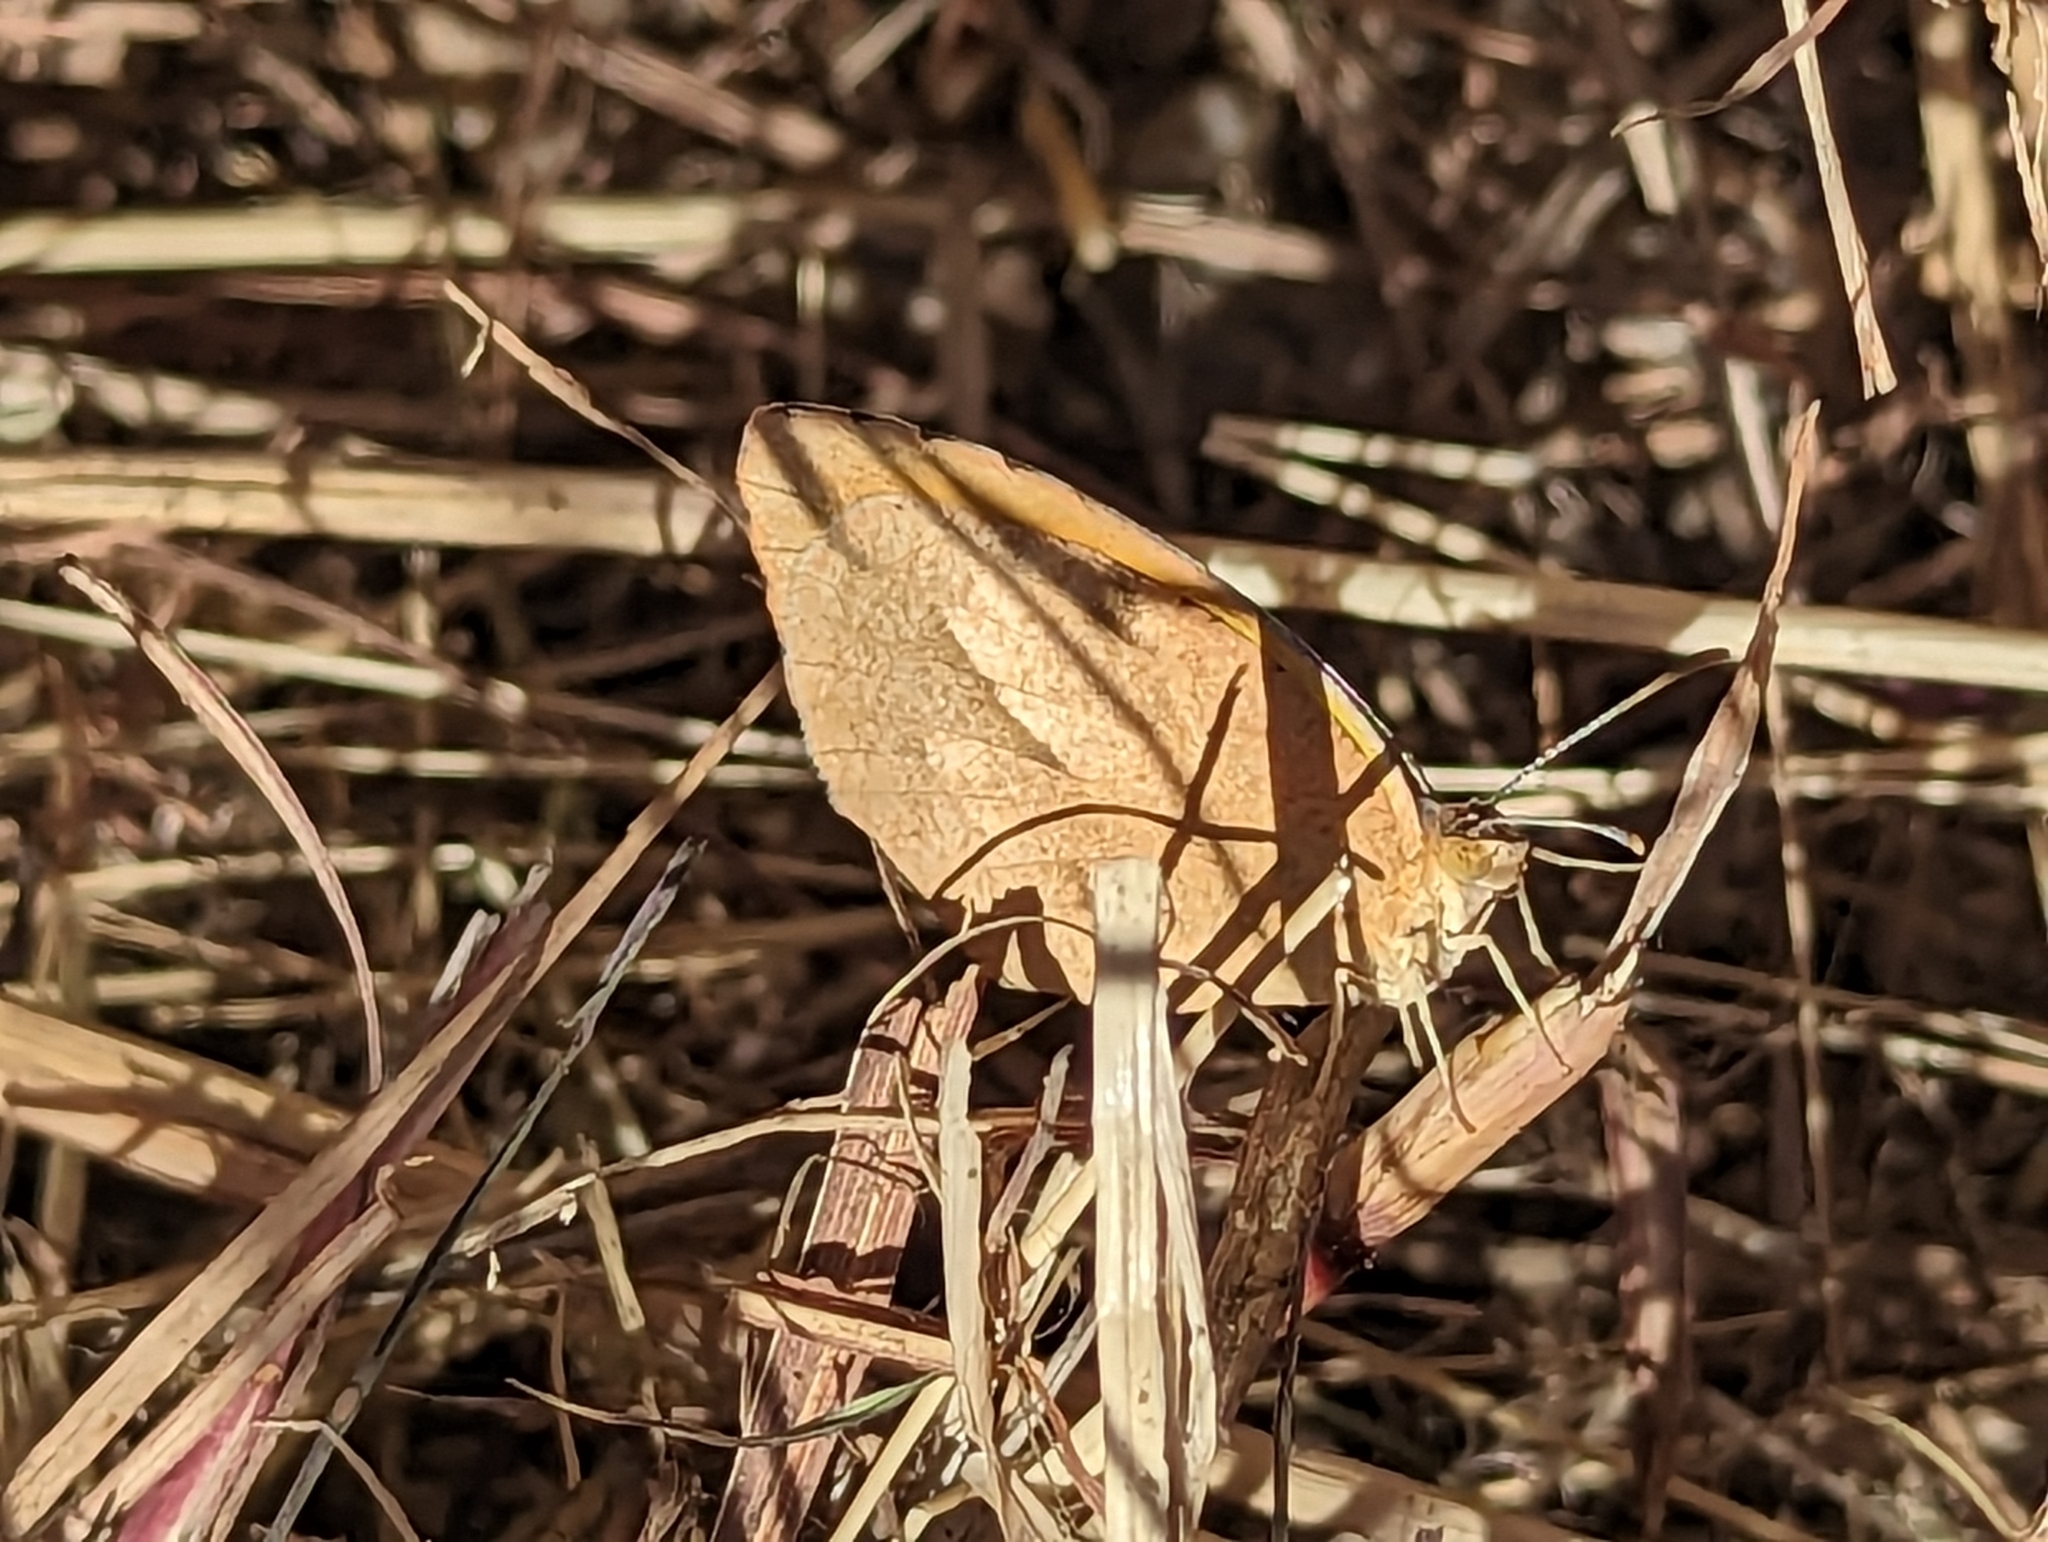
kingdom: Animalia
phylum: Arthropoda
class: Insecta
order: Lepidoptera
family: Pieridae
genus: Abaeis
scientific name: Abaeis nicippe
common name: Sleepy orange
